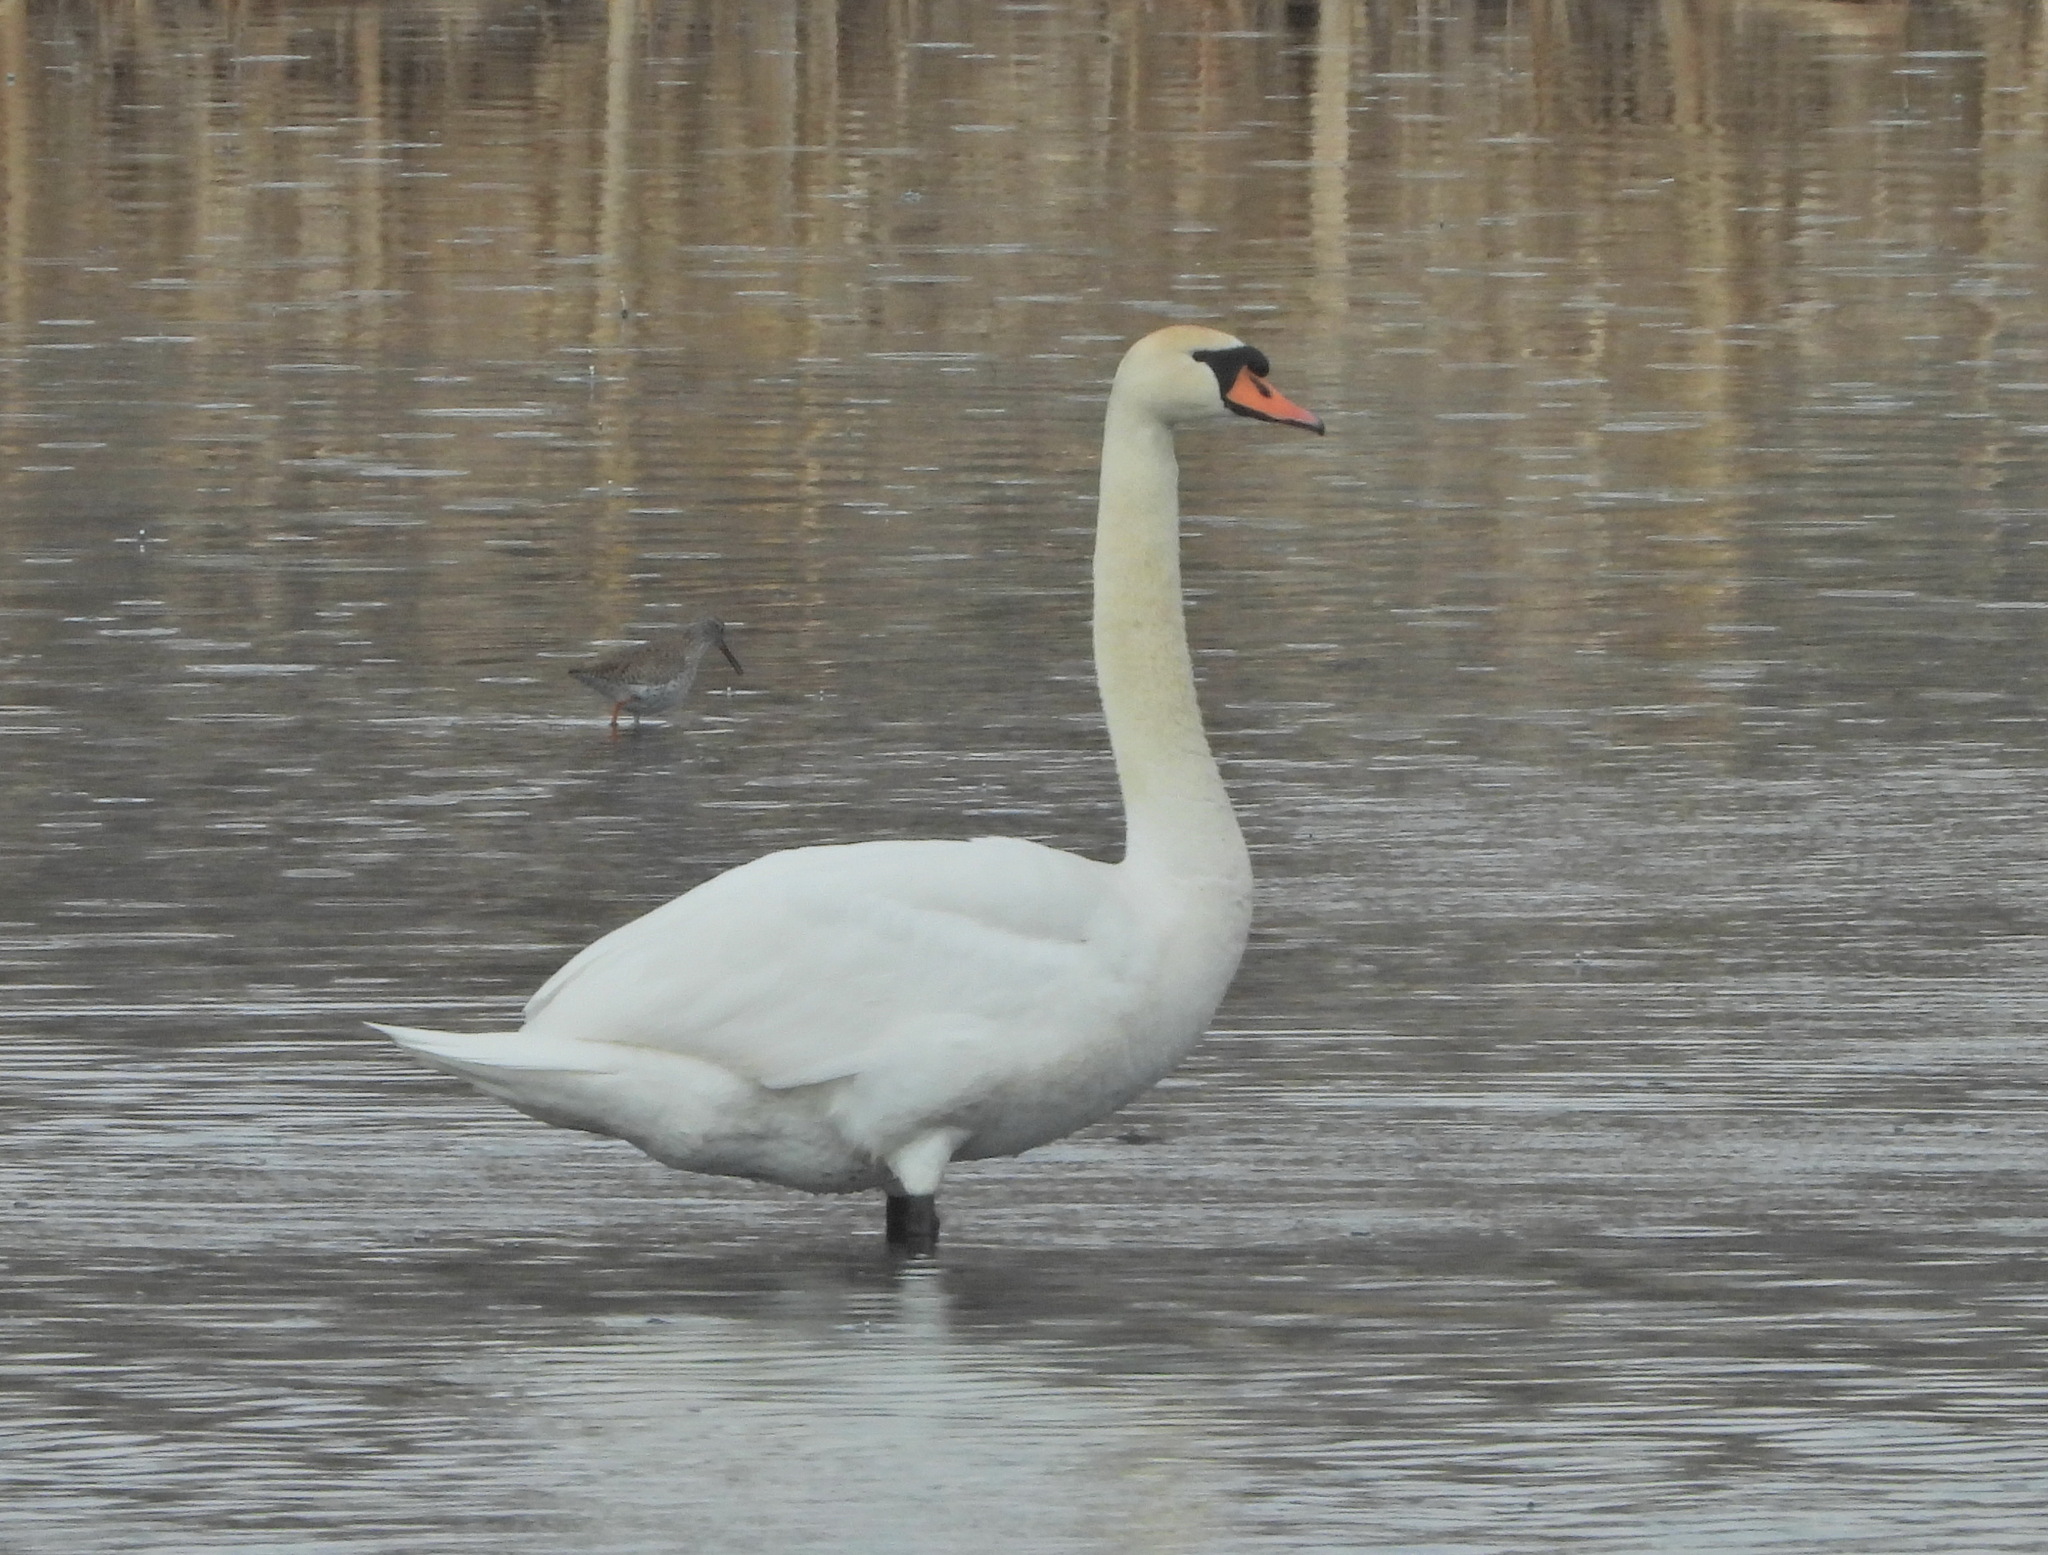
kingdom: Animalia
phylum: Chordata
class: Aves
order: Anseriformes
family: Anatidae
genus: Cygnus
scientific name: Cygnus olor
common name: Mute swan
